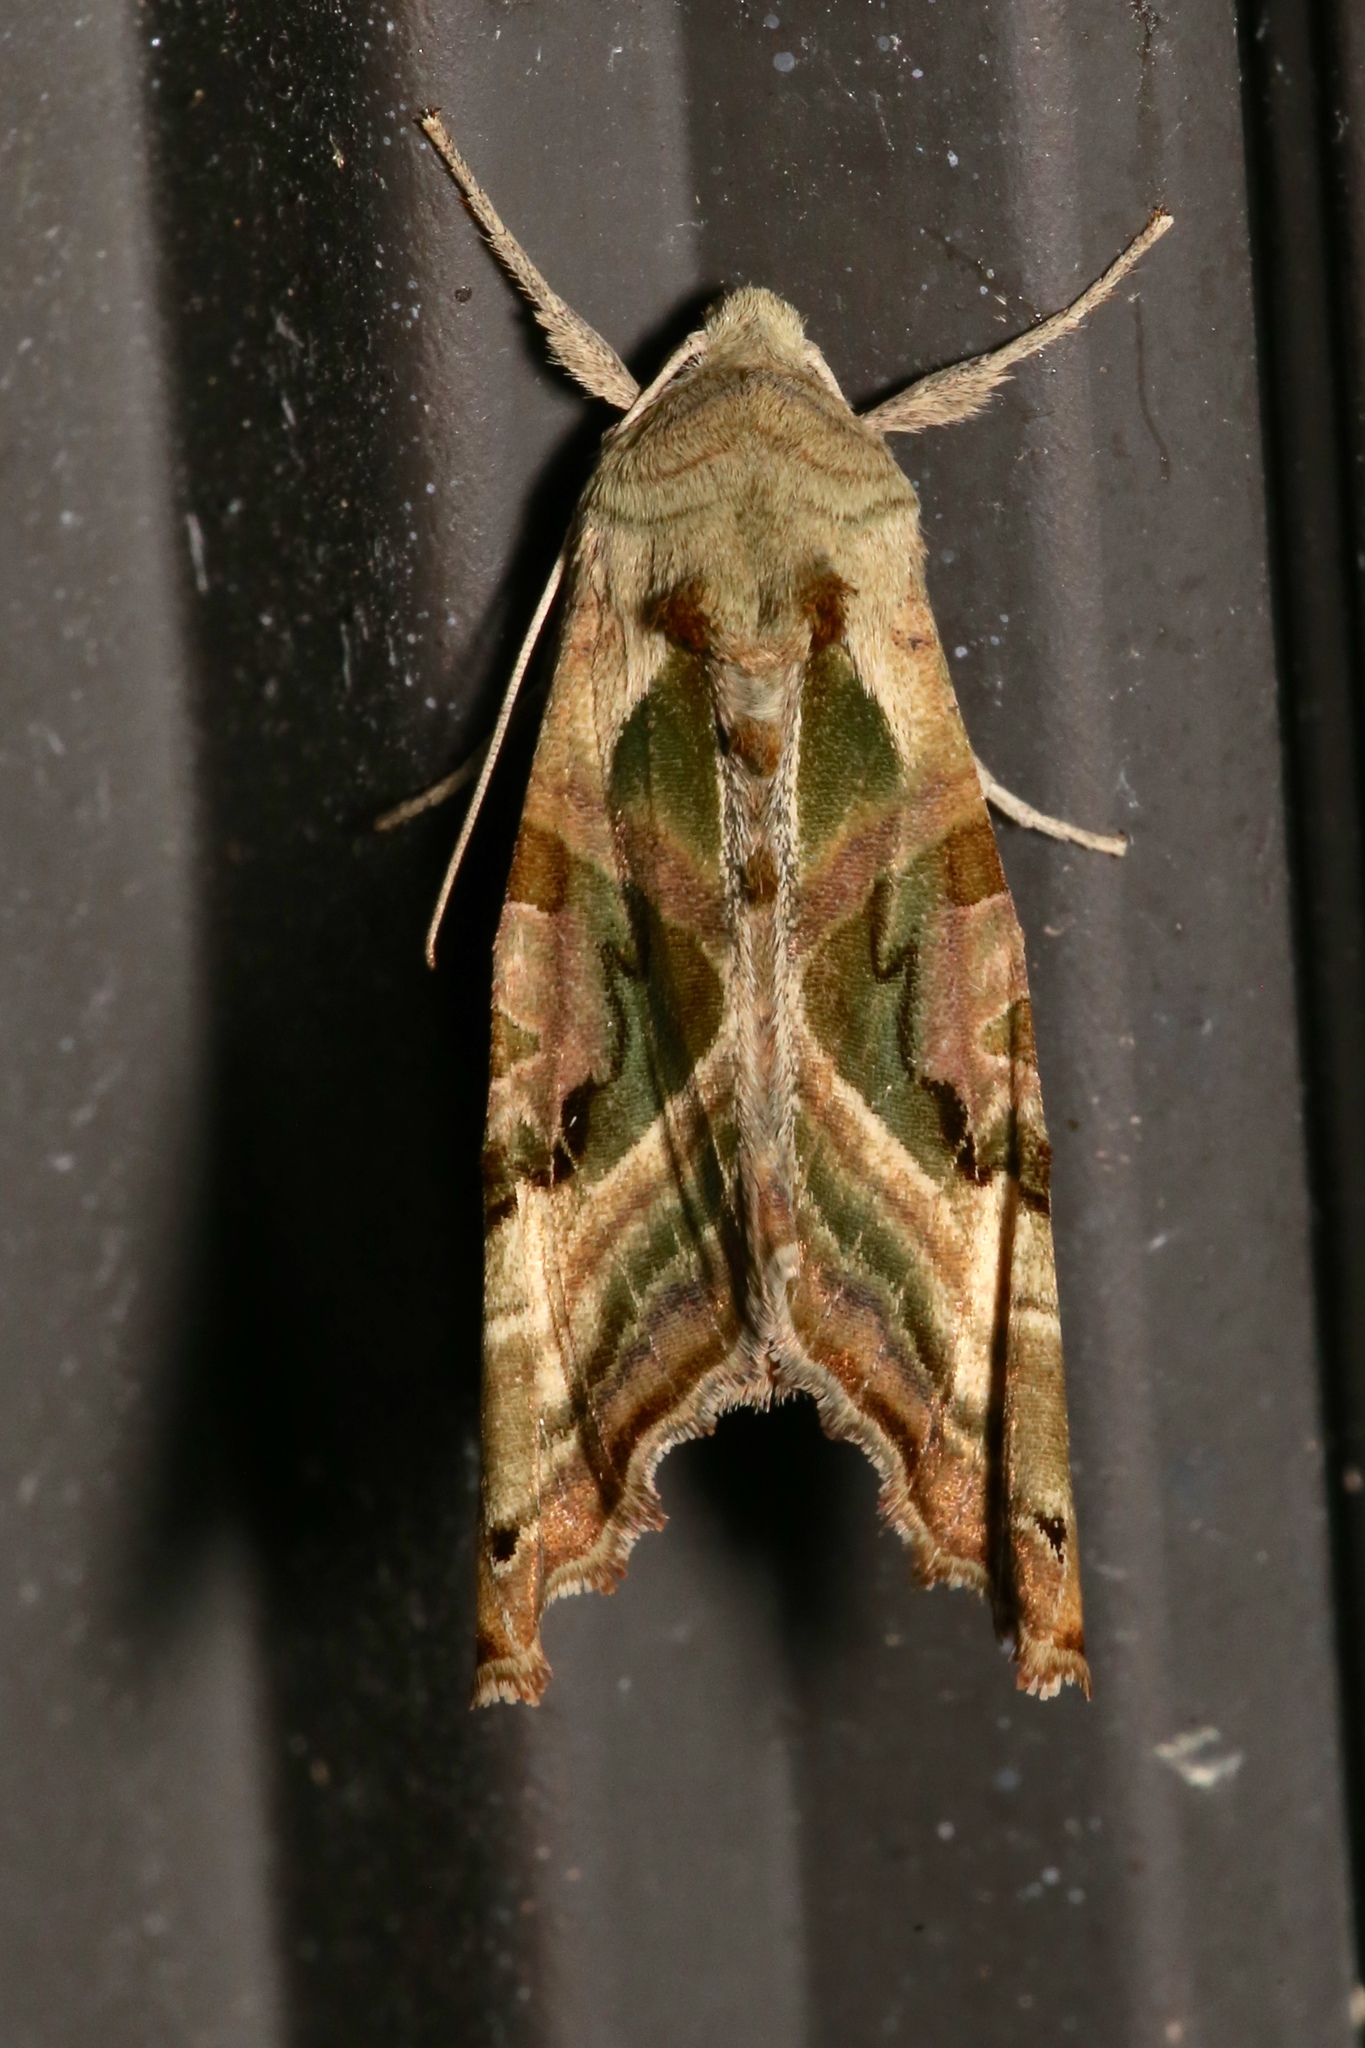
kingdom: Animalia
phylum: Arthropoda
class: Insecta
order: Lepidoptera
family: Noctuidae
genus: Phlogophora
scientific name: Phlogophora iris
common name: Olive angle shades
